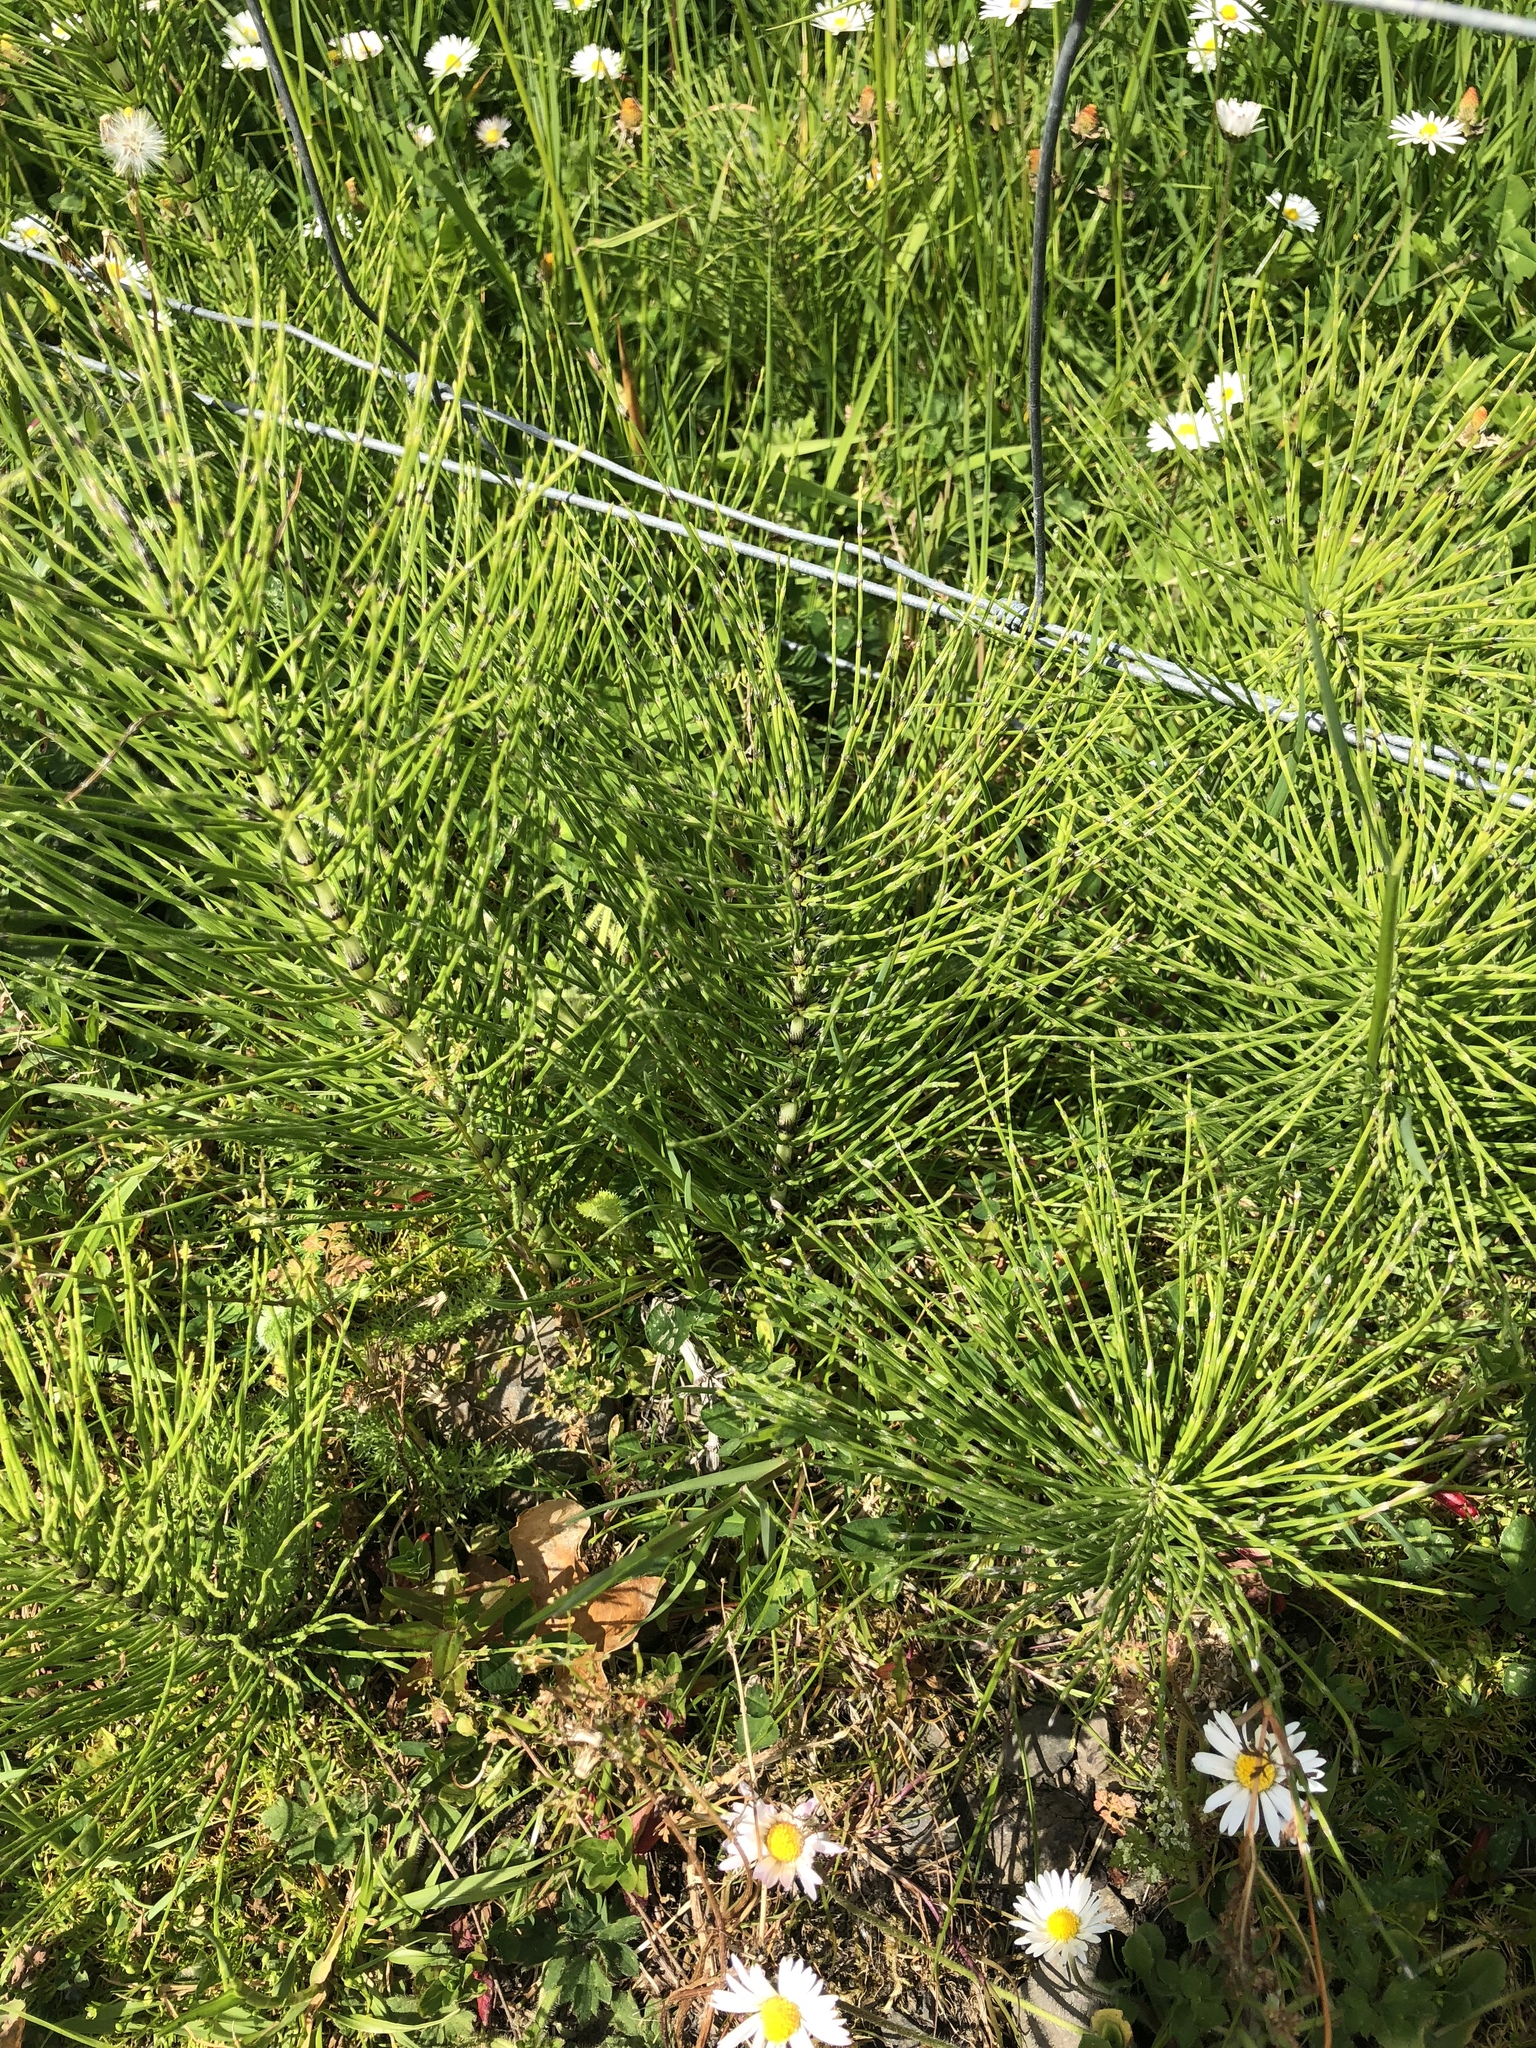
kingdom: Plantae
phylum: Tracheophyta
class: Polypodiopsida
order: Equisetales
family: Equisetaceae
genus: Equisetum
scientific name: Equisetum telmateia
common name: Great horsetail
